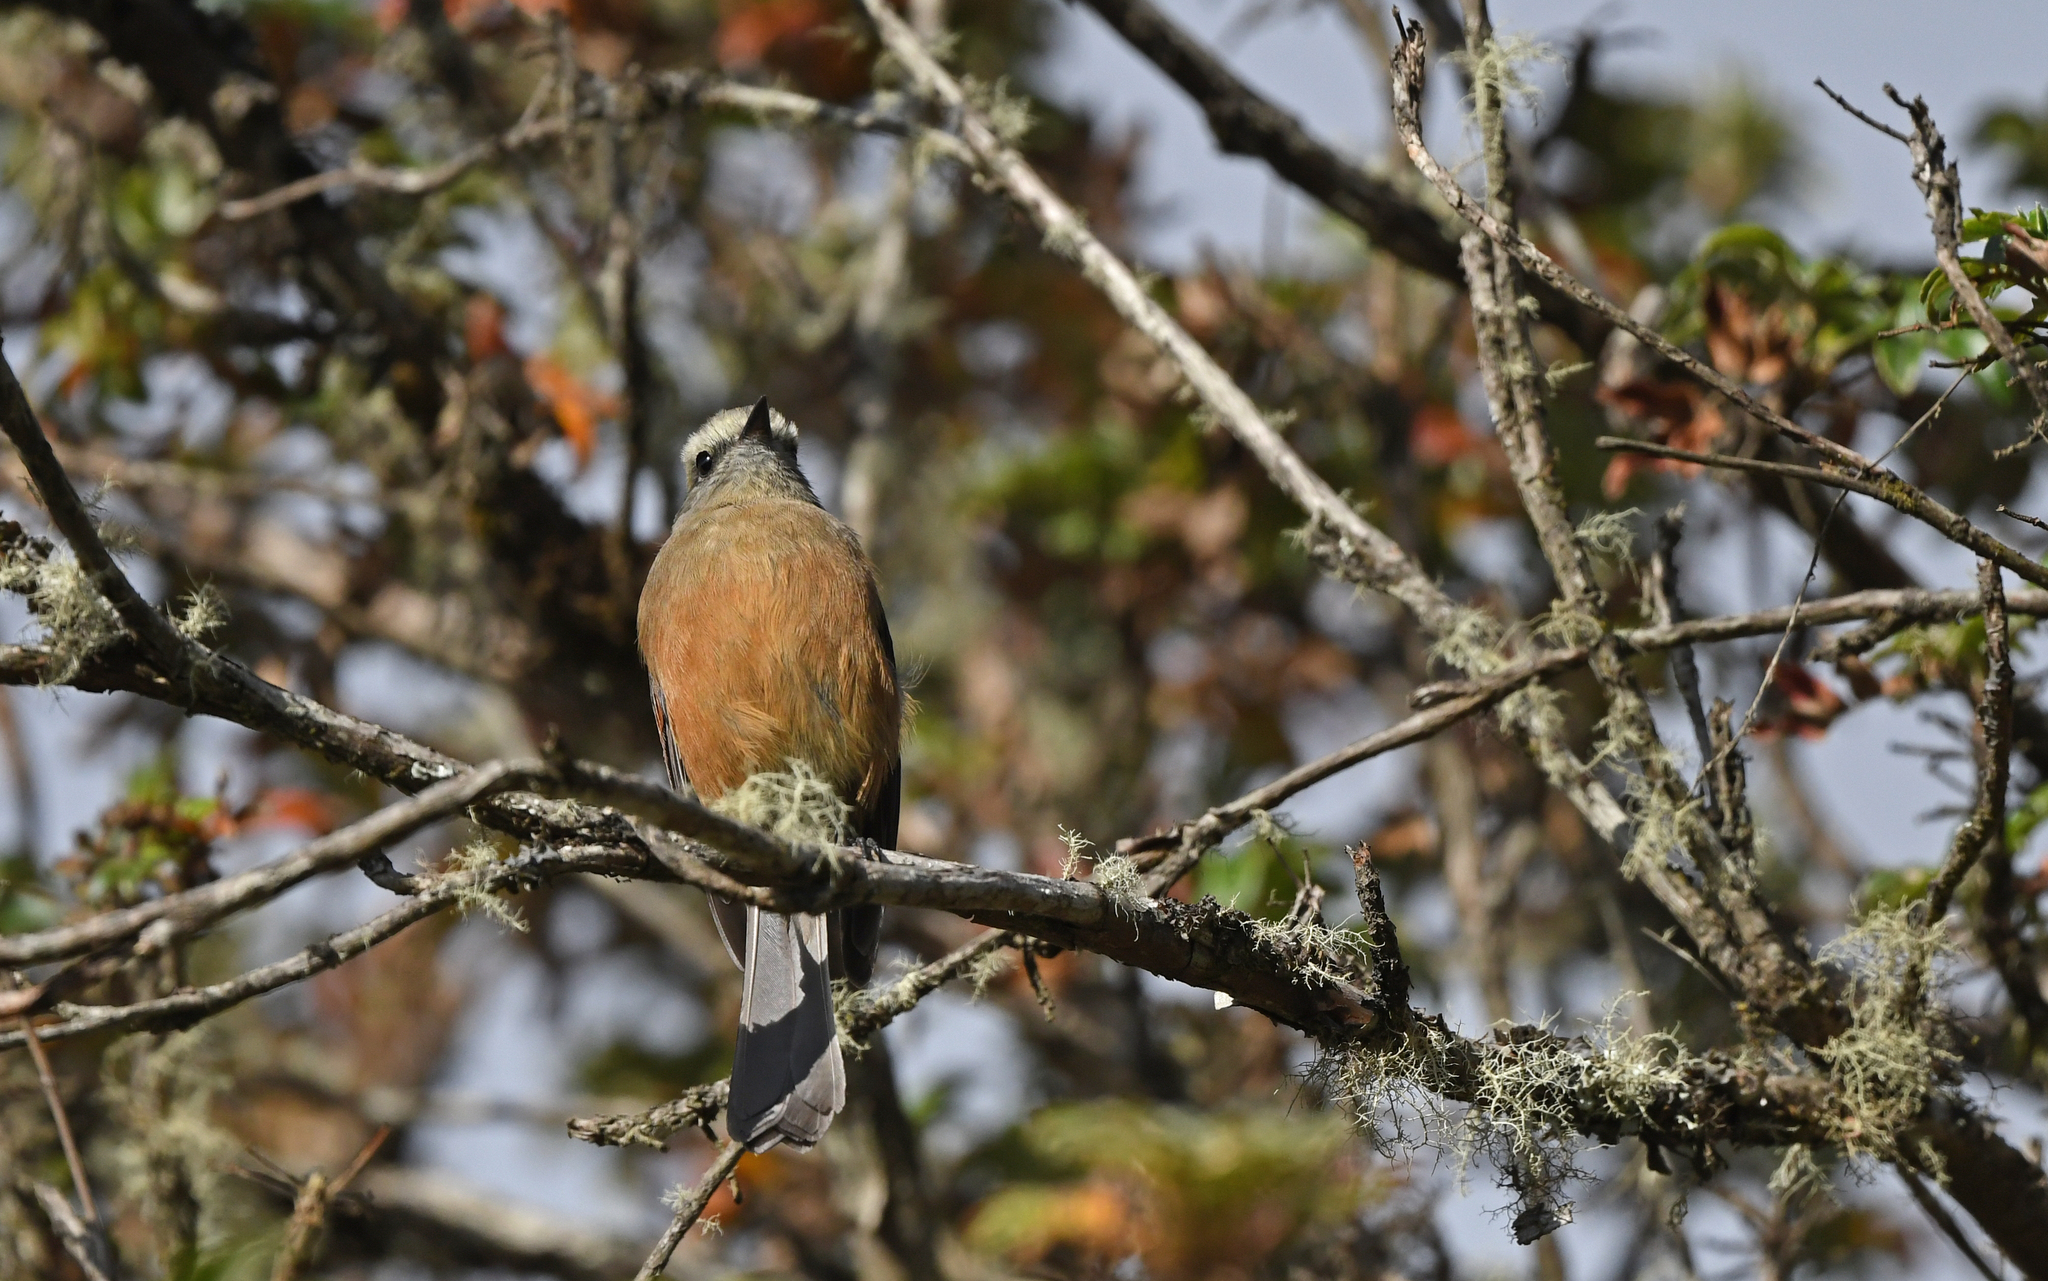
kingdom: Animalia
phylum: Chordata
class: Aves
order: Passeriformes
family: Tyrannidae
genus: Ochthoeca
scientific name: Ochthoeca oenanthoides
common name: D'orbigny's chat-tyrant
